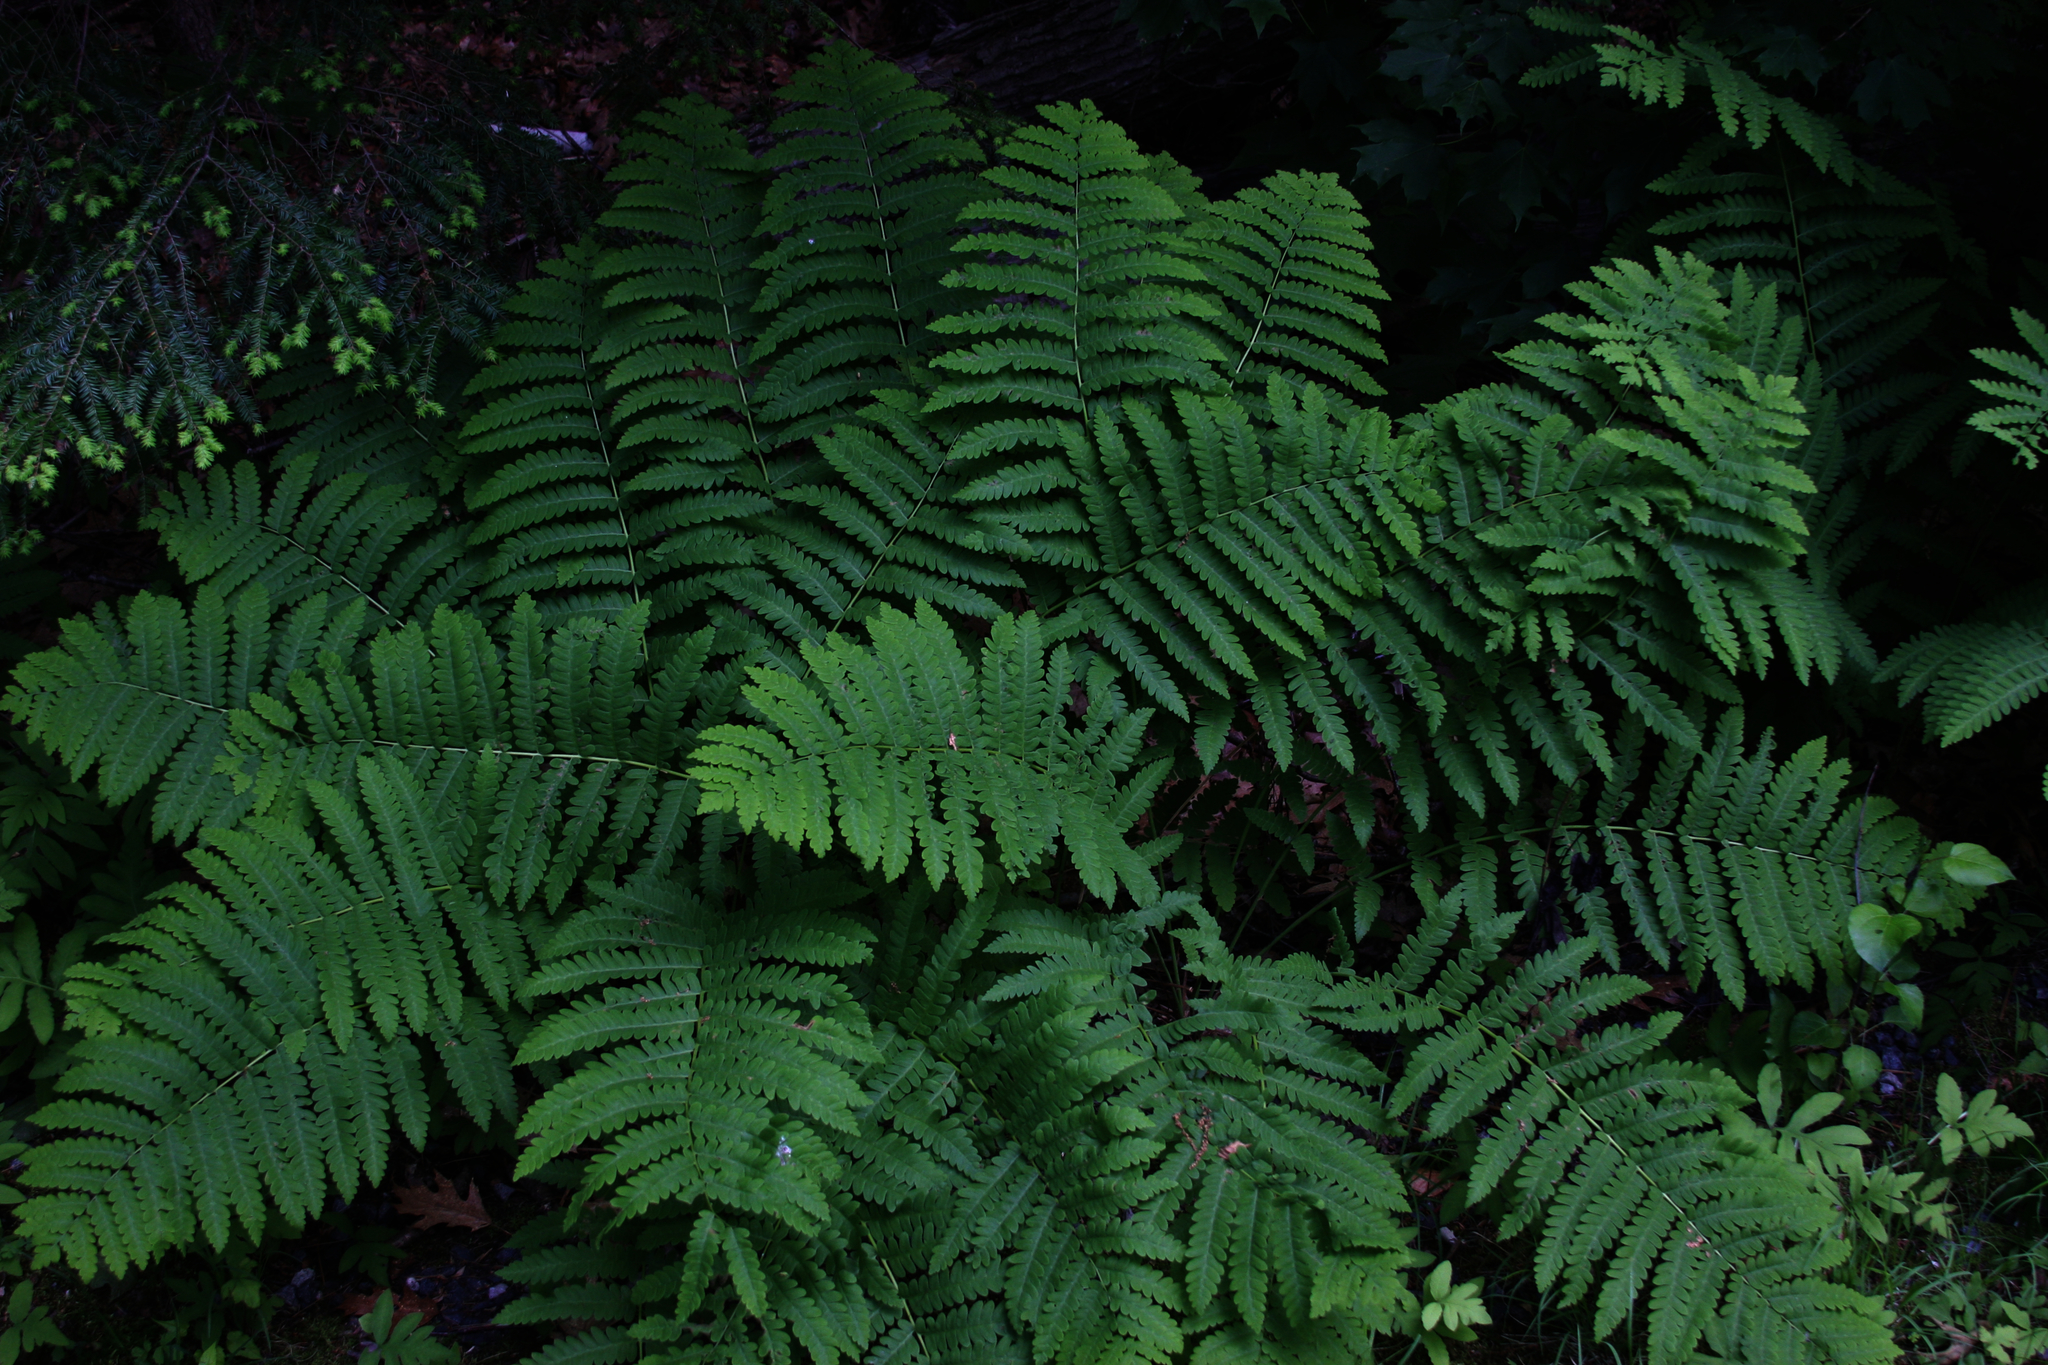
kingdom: Plantae
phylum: Tracheophyta
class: Pinopsida
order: Pinales
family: Pinaceae
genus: Tsuga
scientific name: Tsuga canadensis
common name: Eastern hemlock
